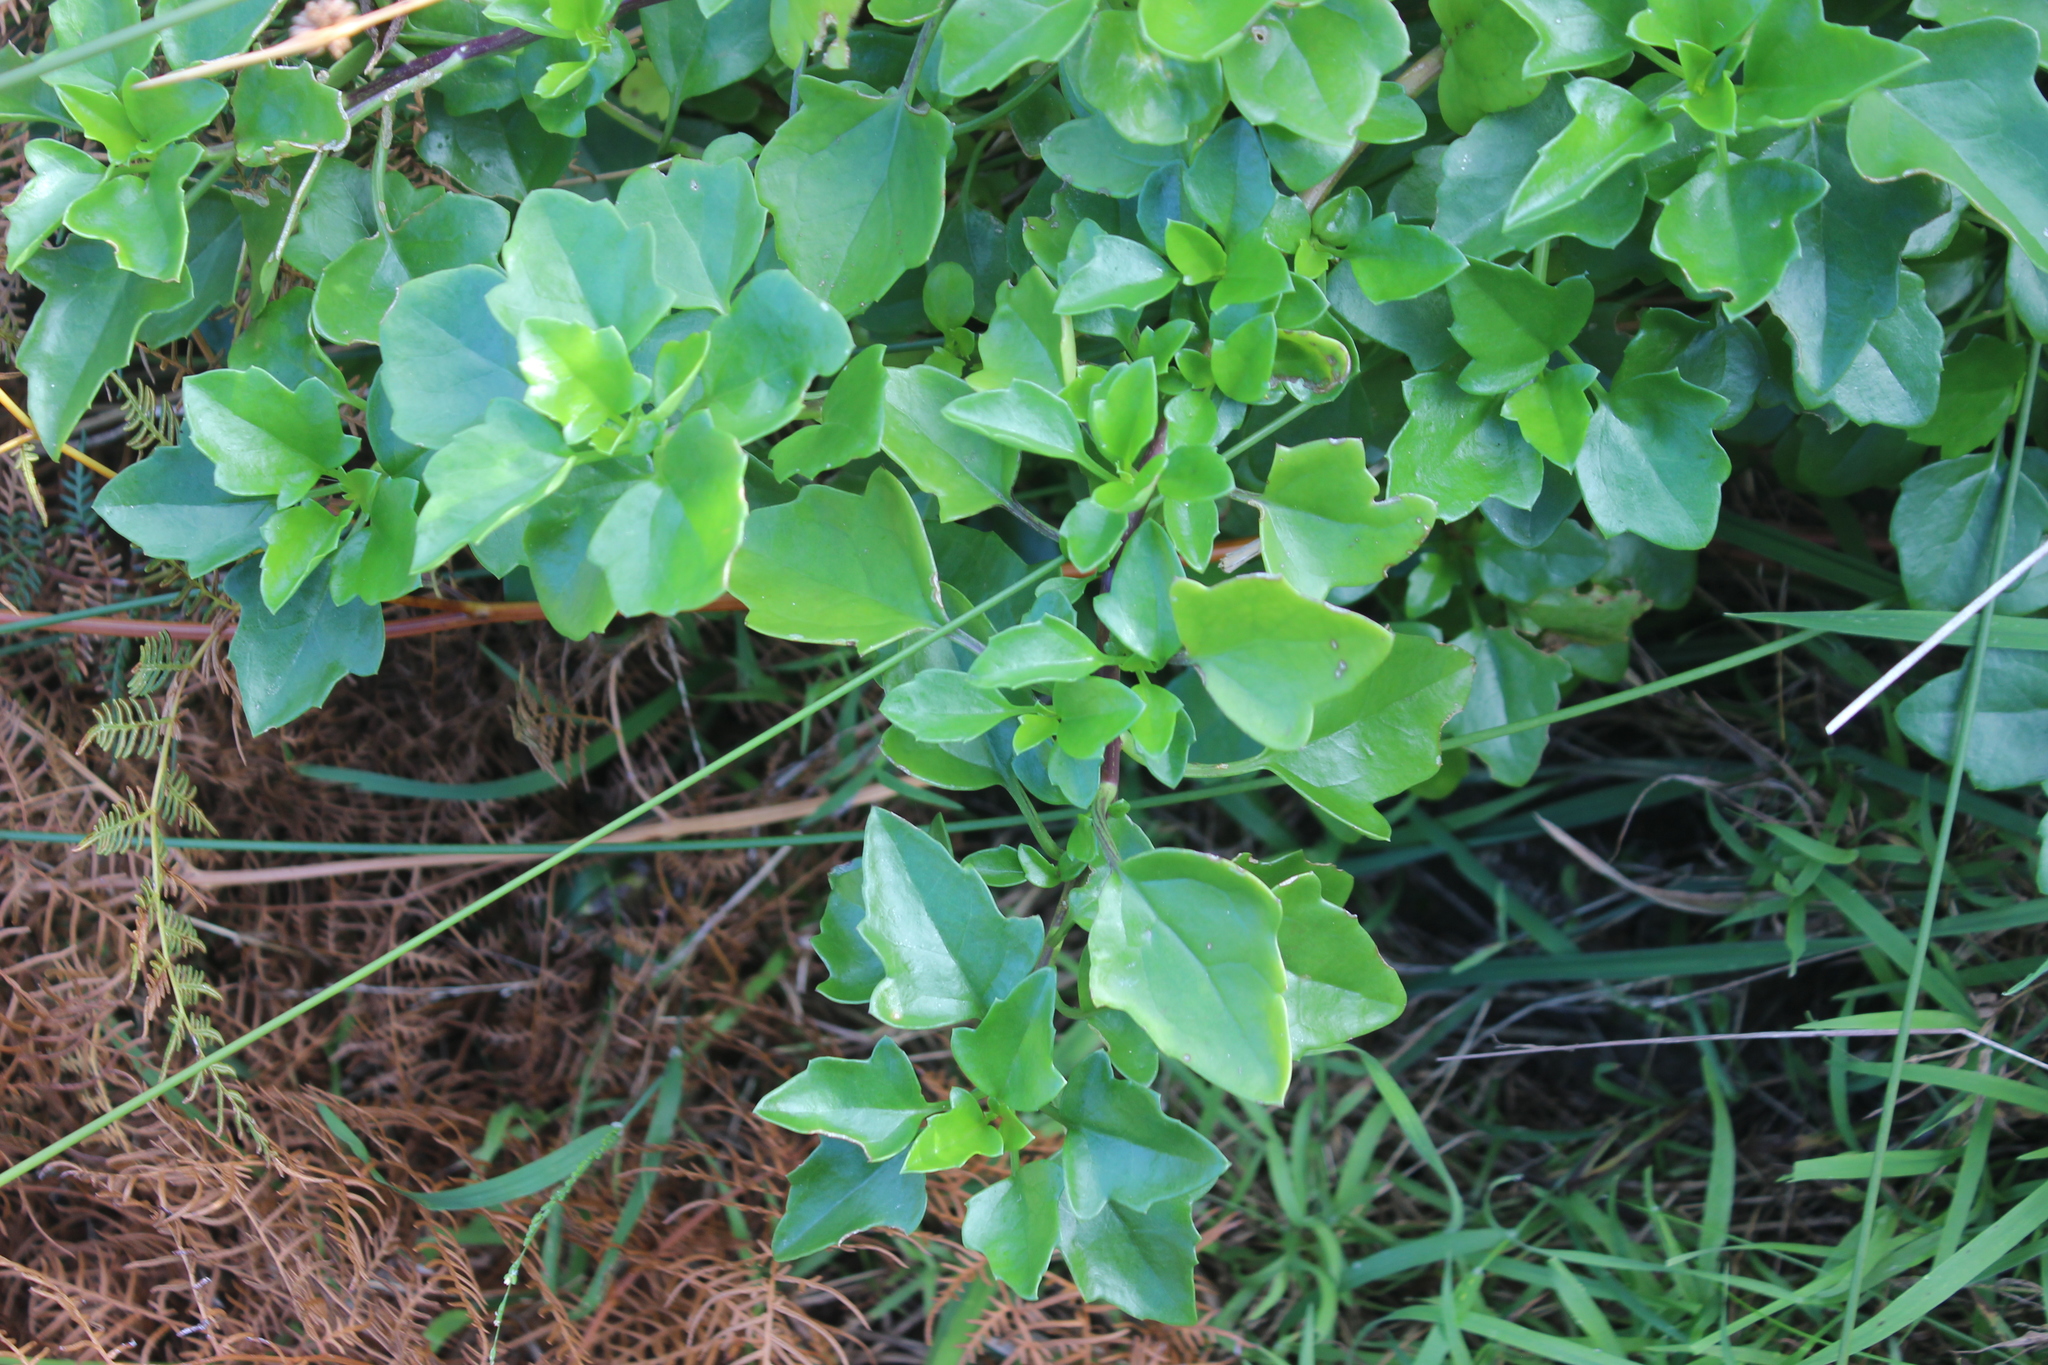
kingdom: Plantae
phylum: Tracheophyta
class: Magnoliopsida
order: Asterales
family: Asteraceae
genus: Senecio
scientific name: Senecio angulatus
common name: Climbing groundsel
